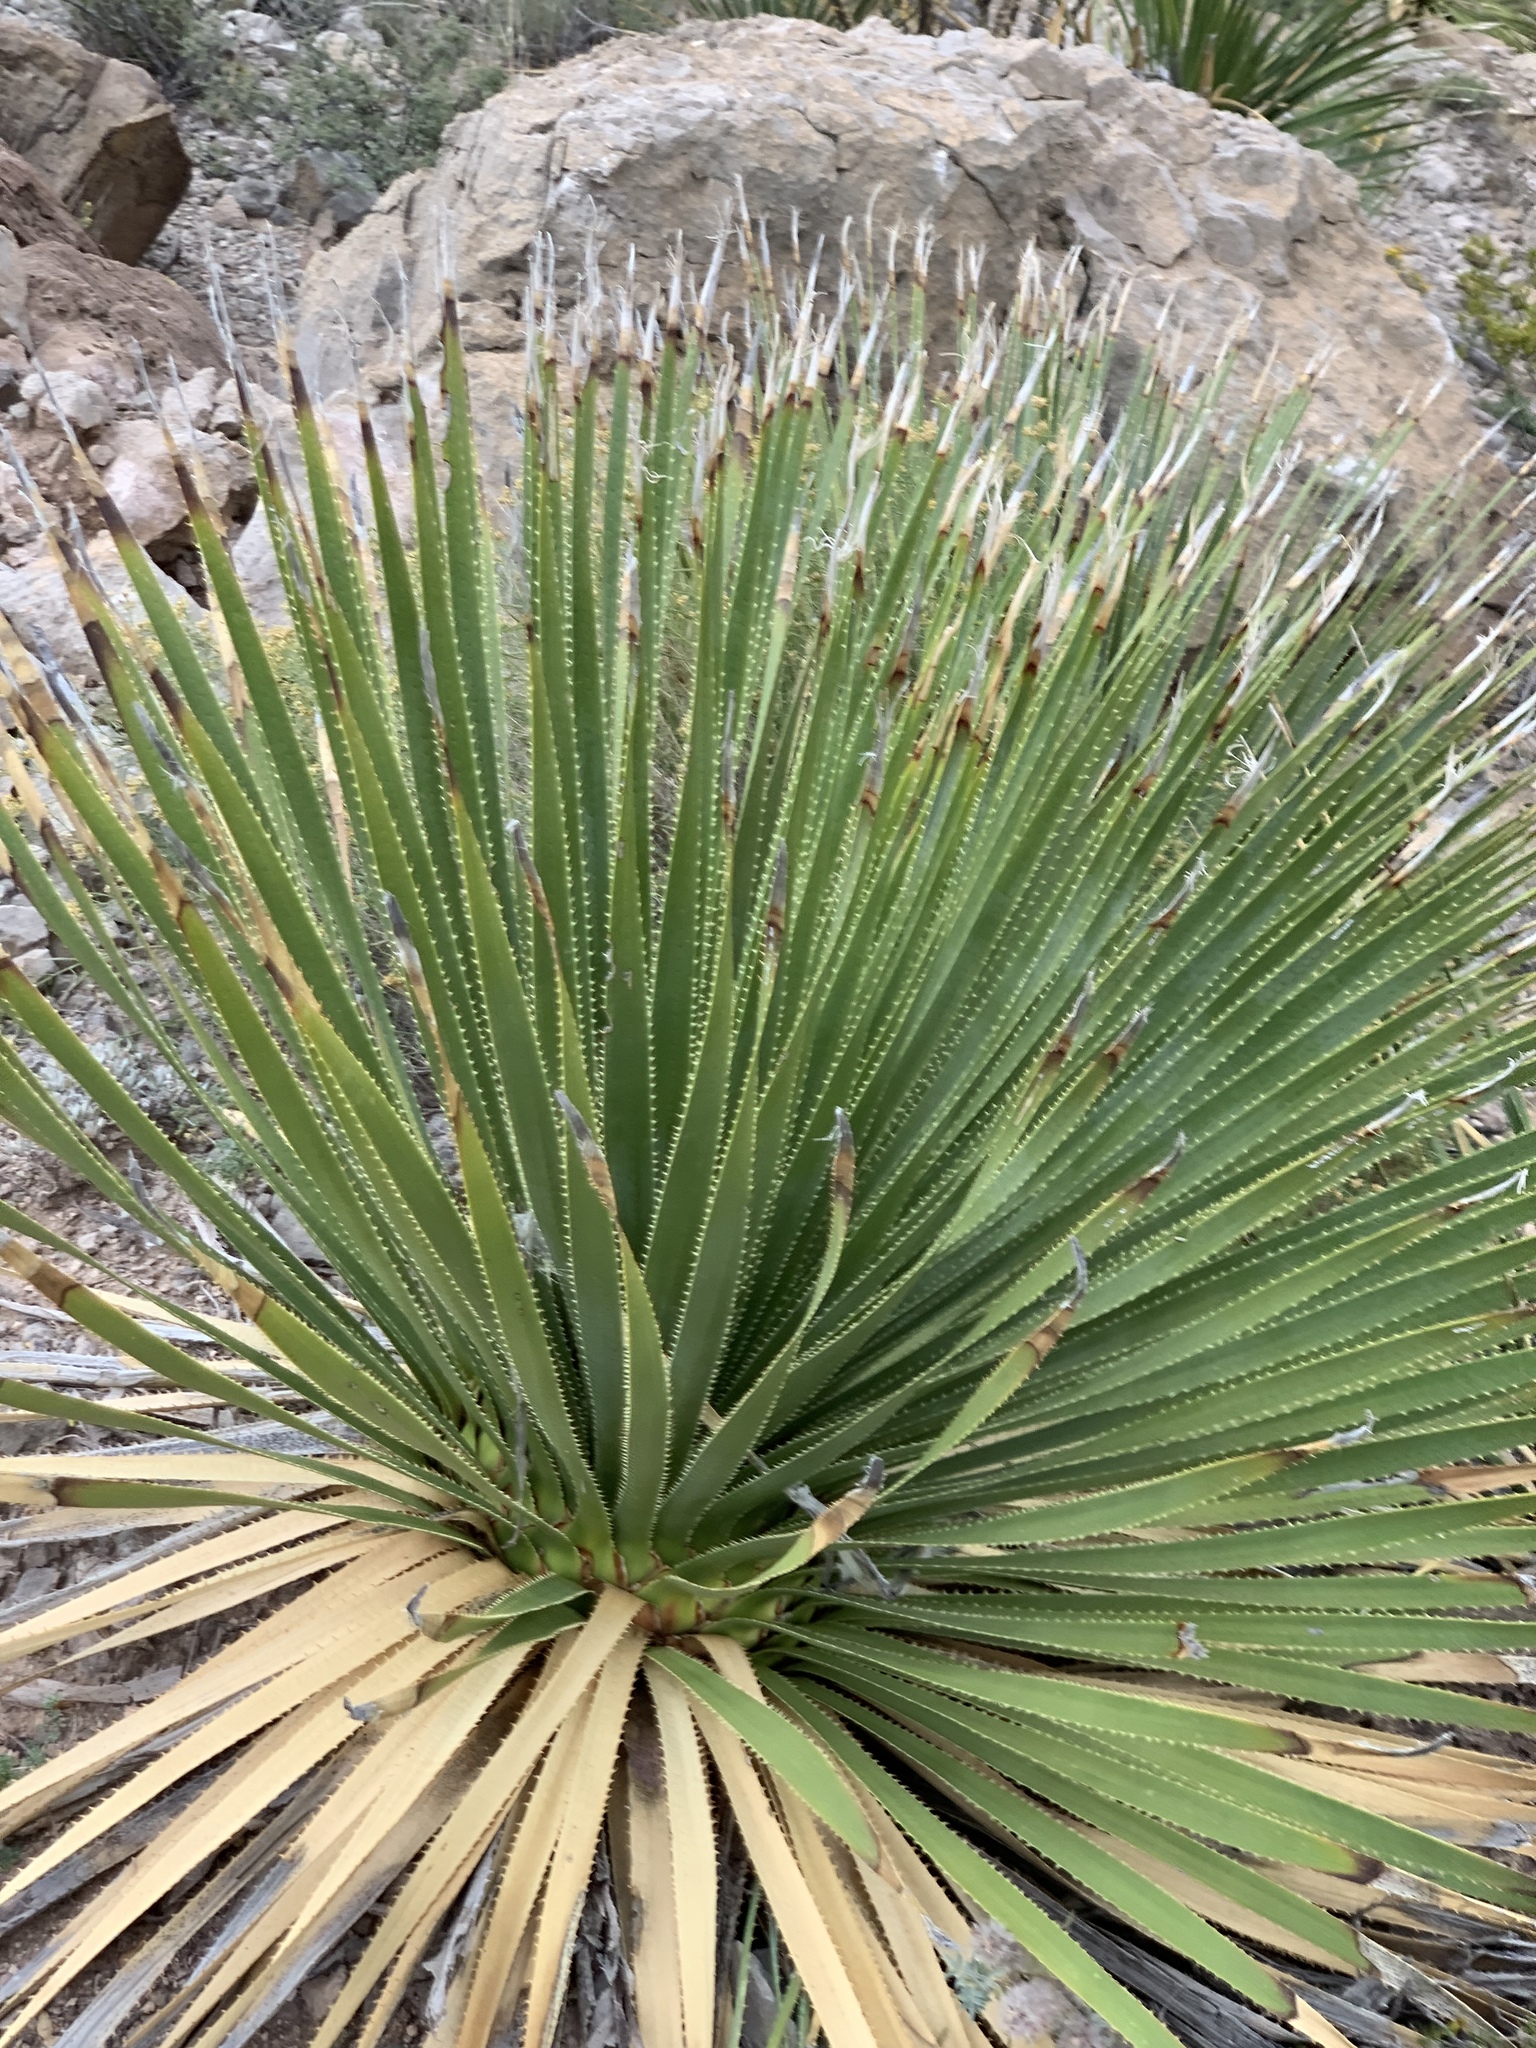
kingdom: Plantae
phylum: Tracheophyta
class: Liliopsida
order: Asparagales
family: Asparagaceae
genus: Dasylirion
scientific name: Dasylirion wheeleri
